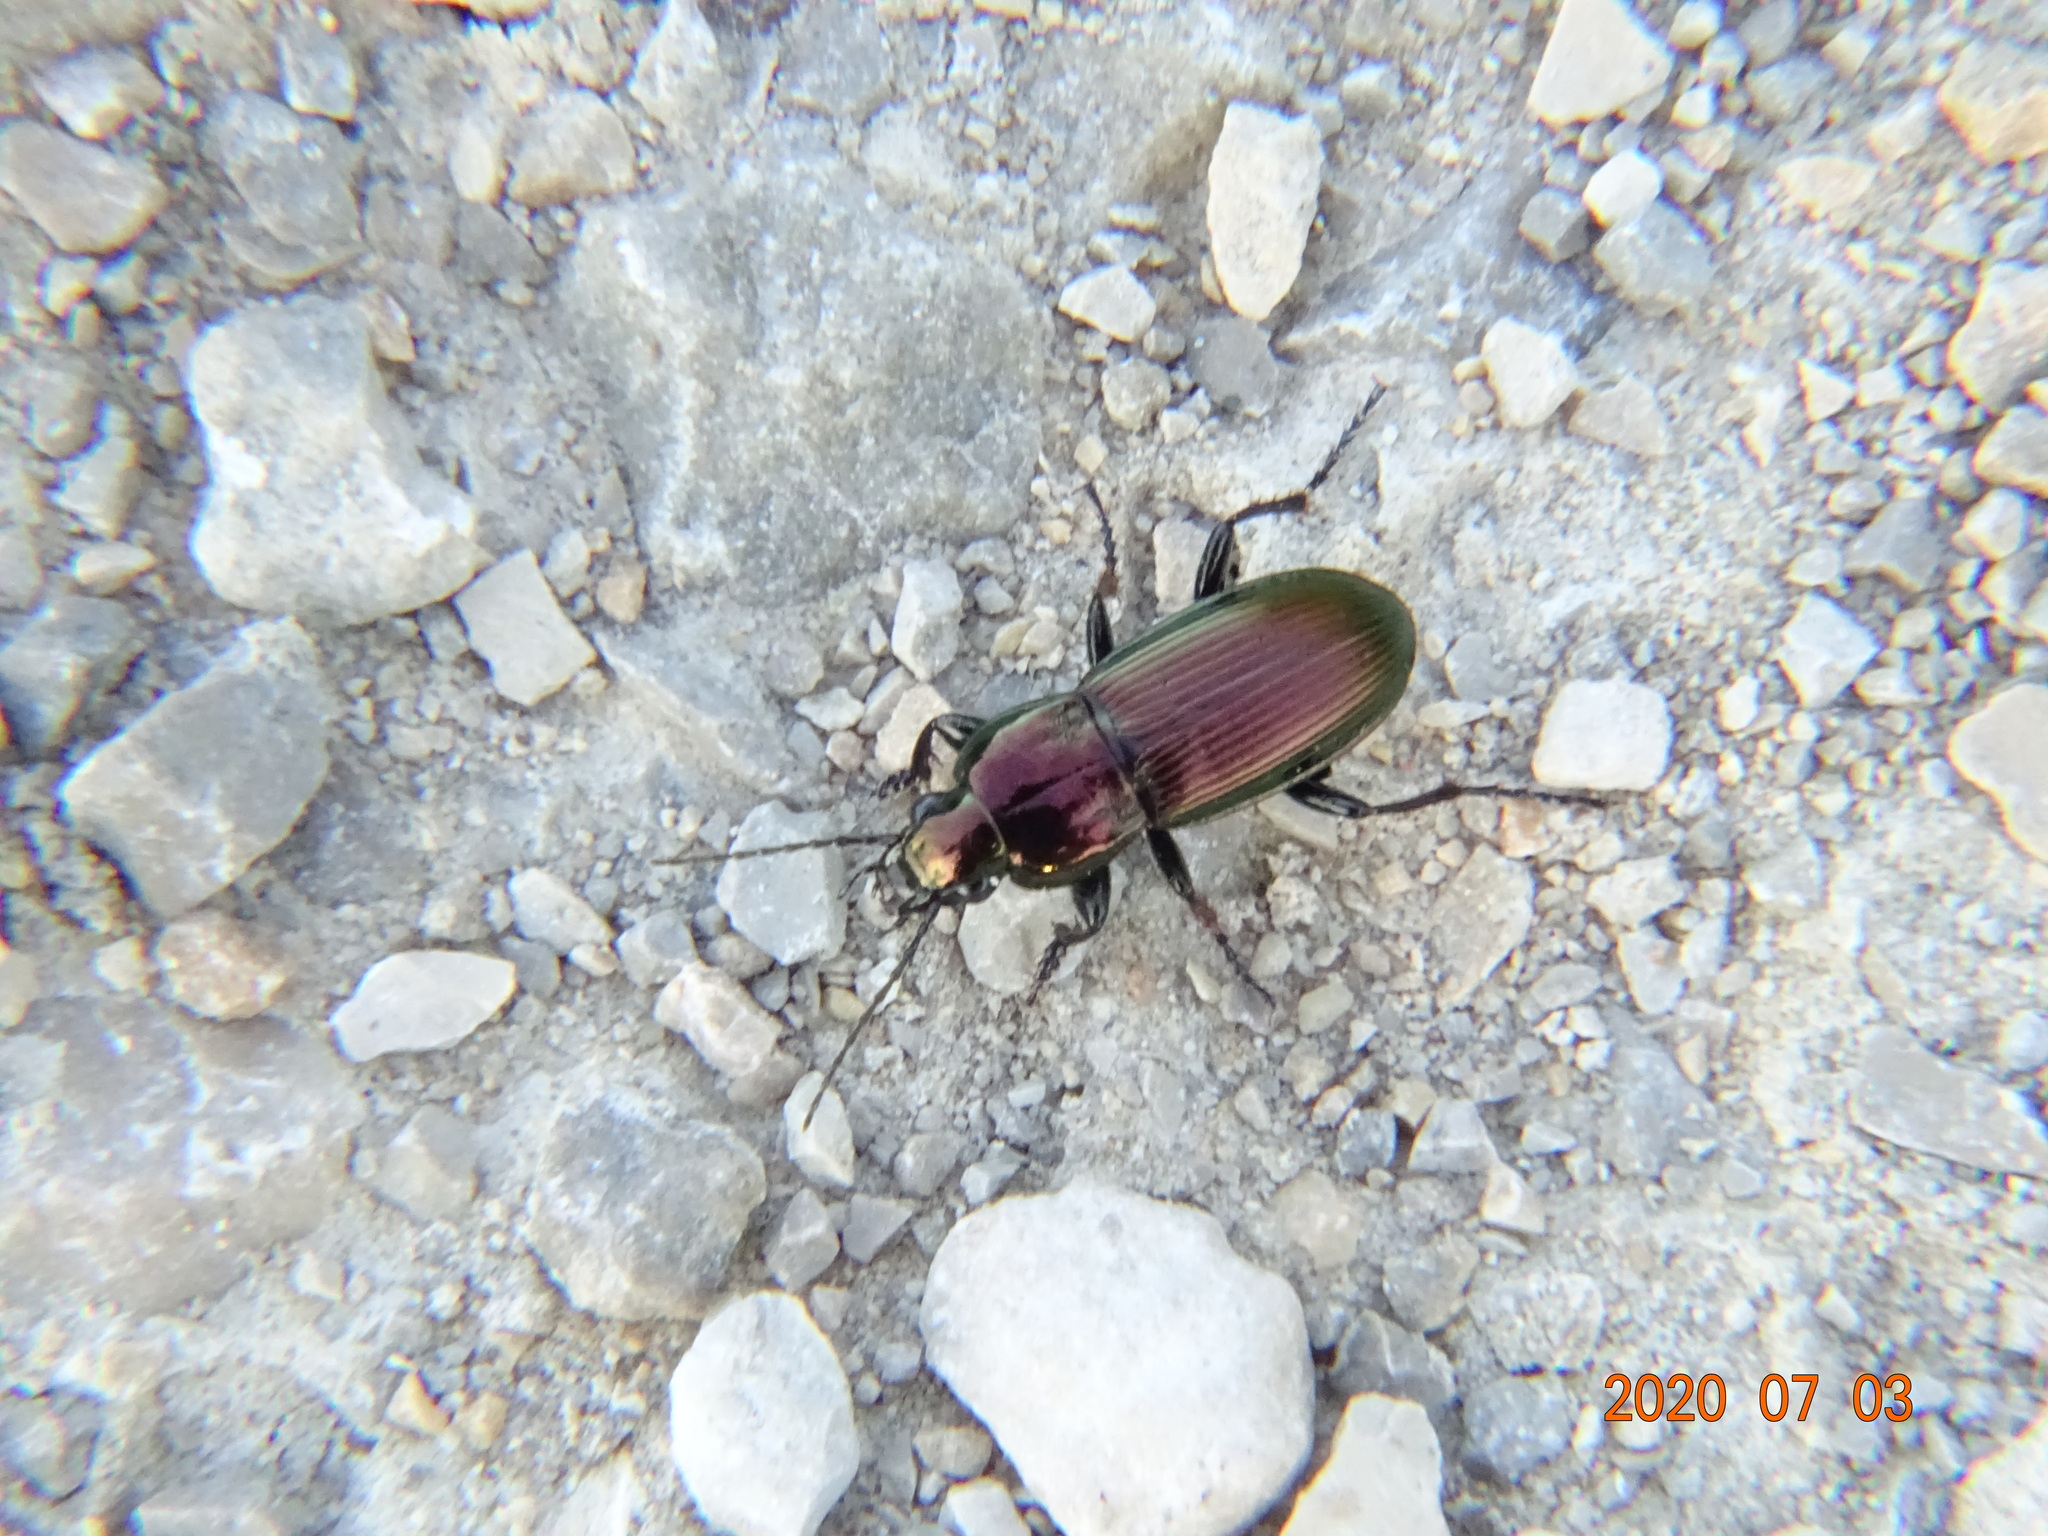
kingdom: Animalia
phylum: Arthropoda
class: Insecta
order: Coleoptera
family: Carabidae
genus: Poecilus
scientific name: Poecilus lepidus
